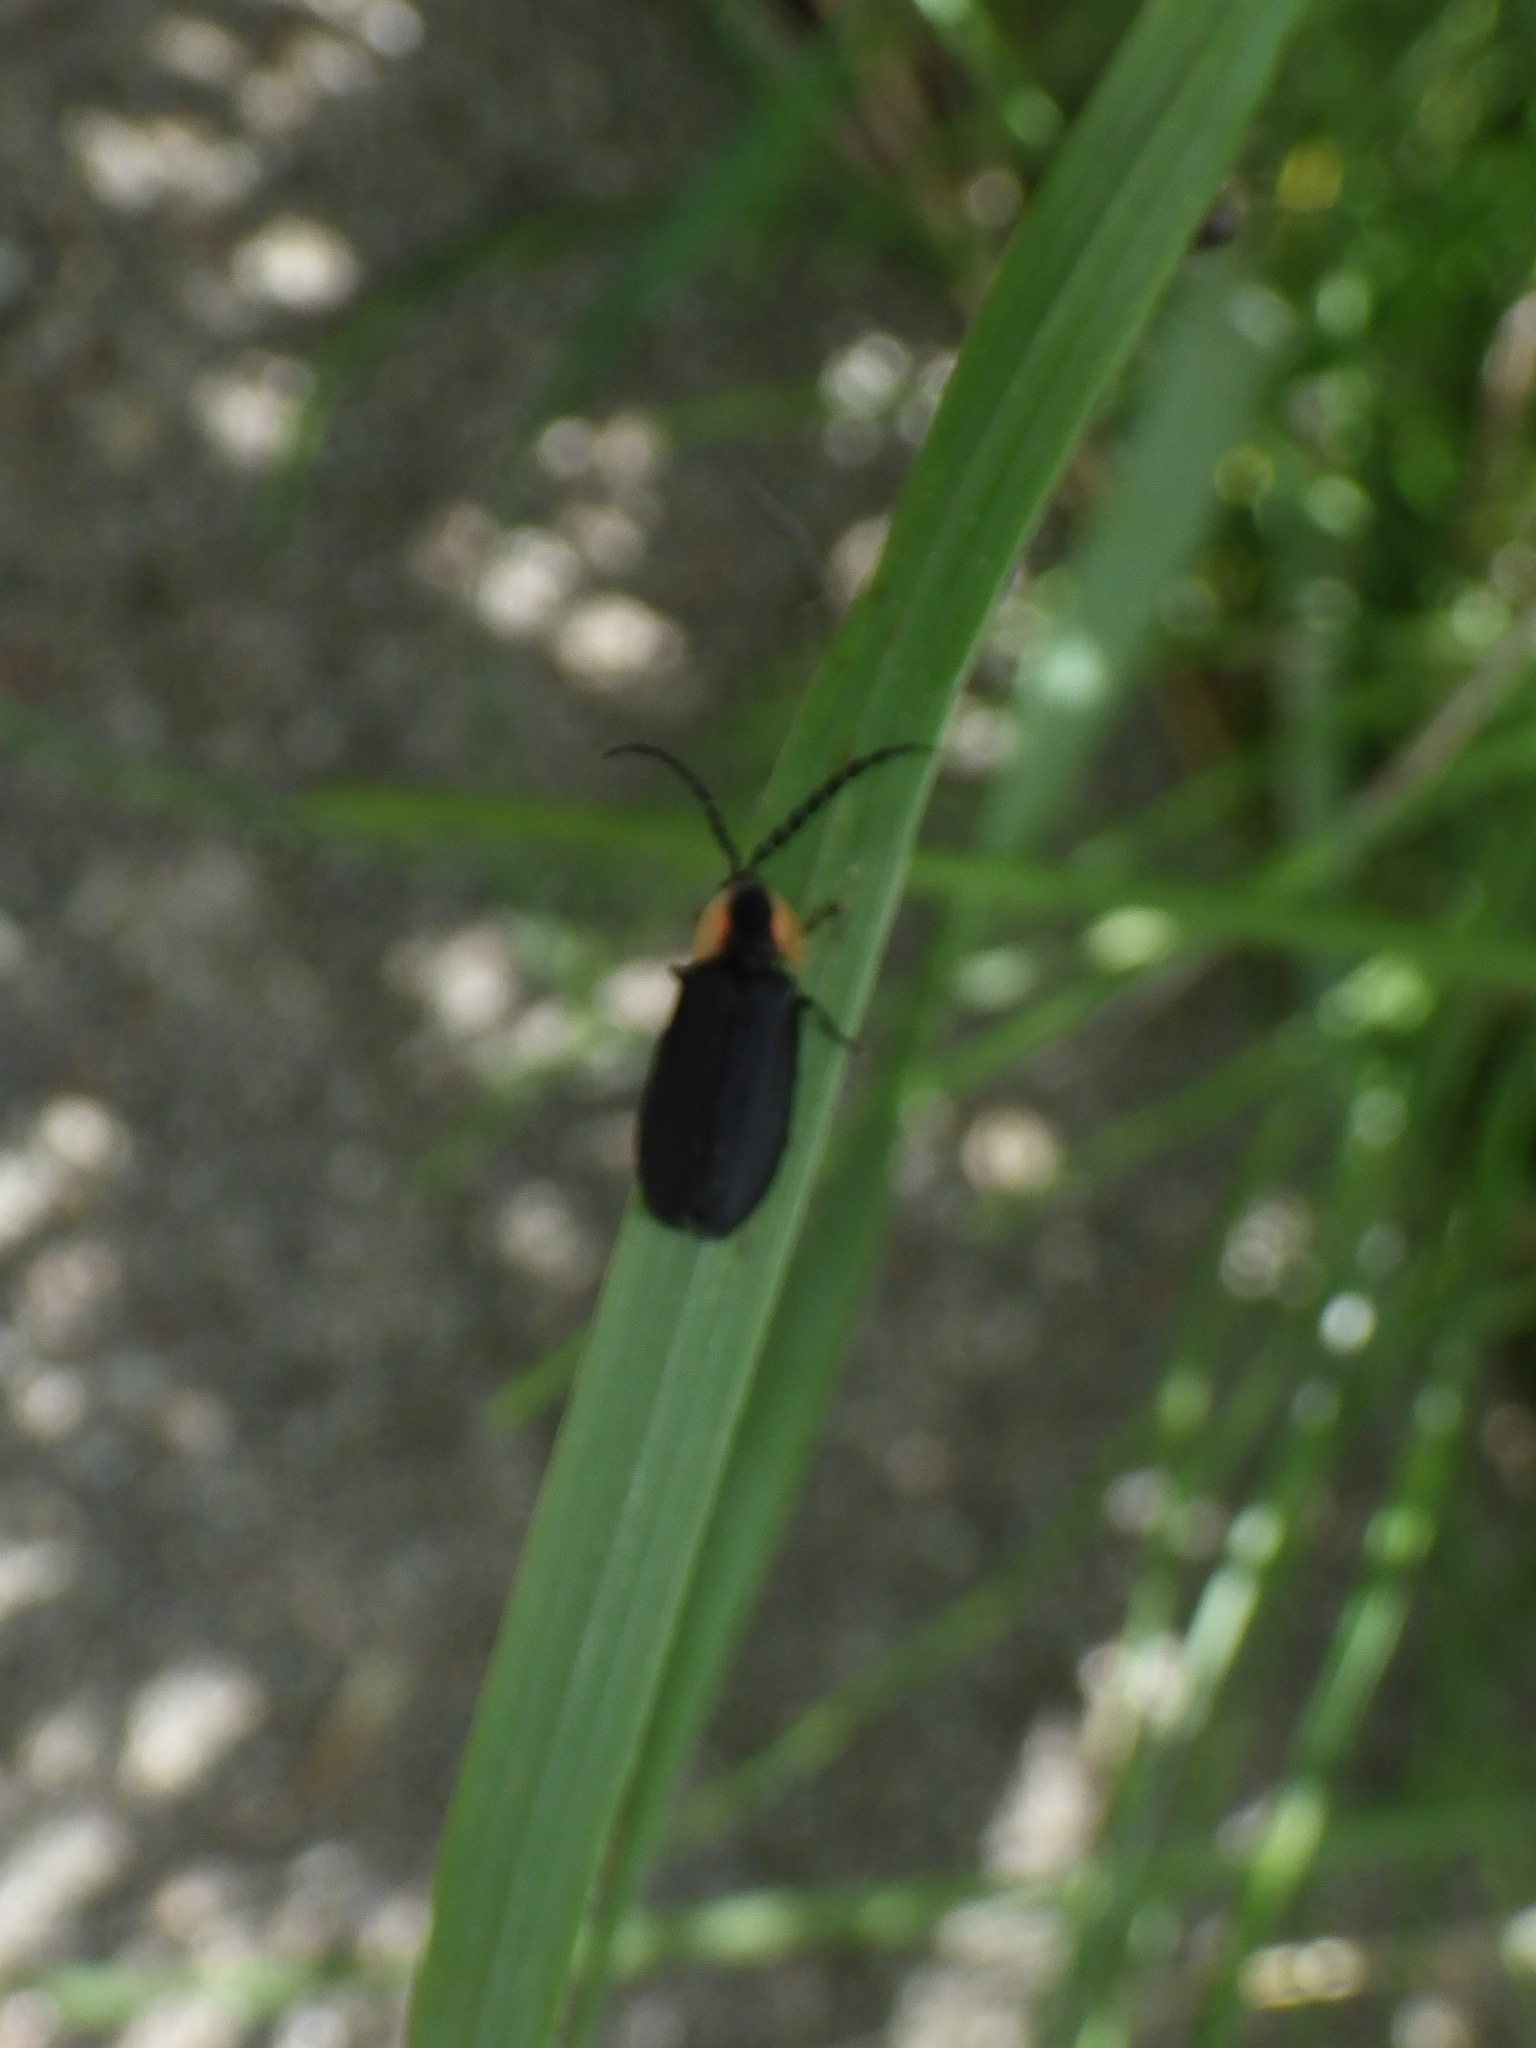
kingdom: Animalia
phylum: Arthropoda
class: Insecta
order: Coleoptera
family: Lampyridae
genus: Lucidota
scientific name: Lucidota atra
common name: Black firefly
